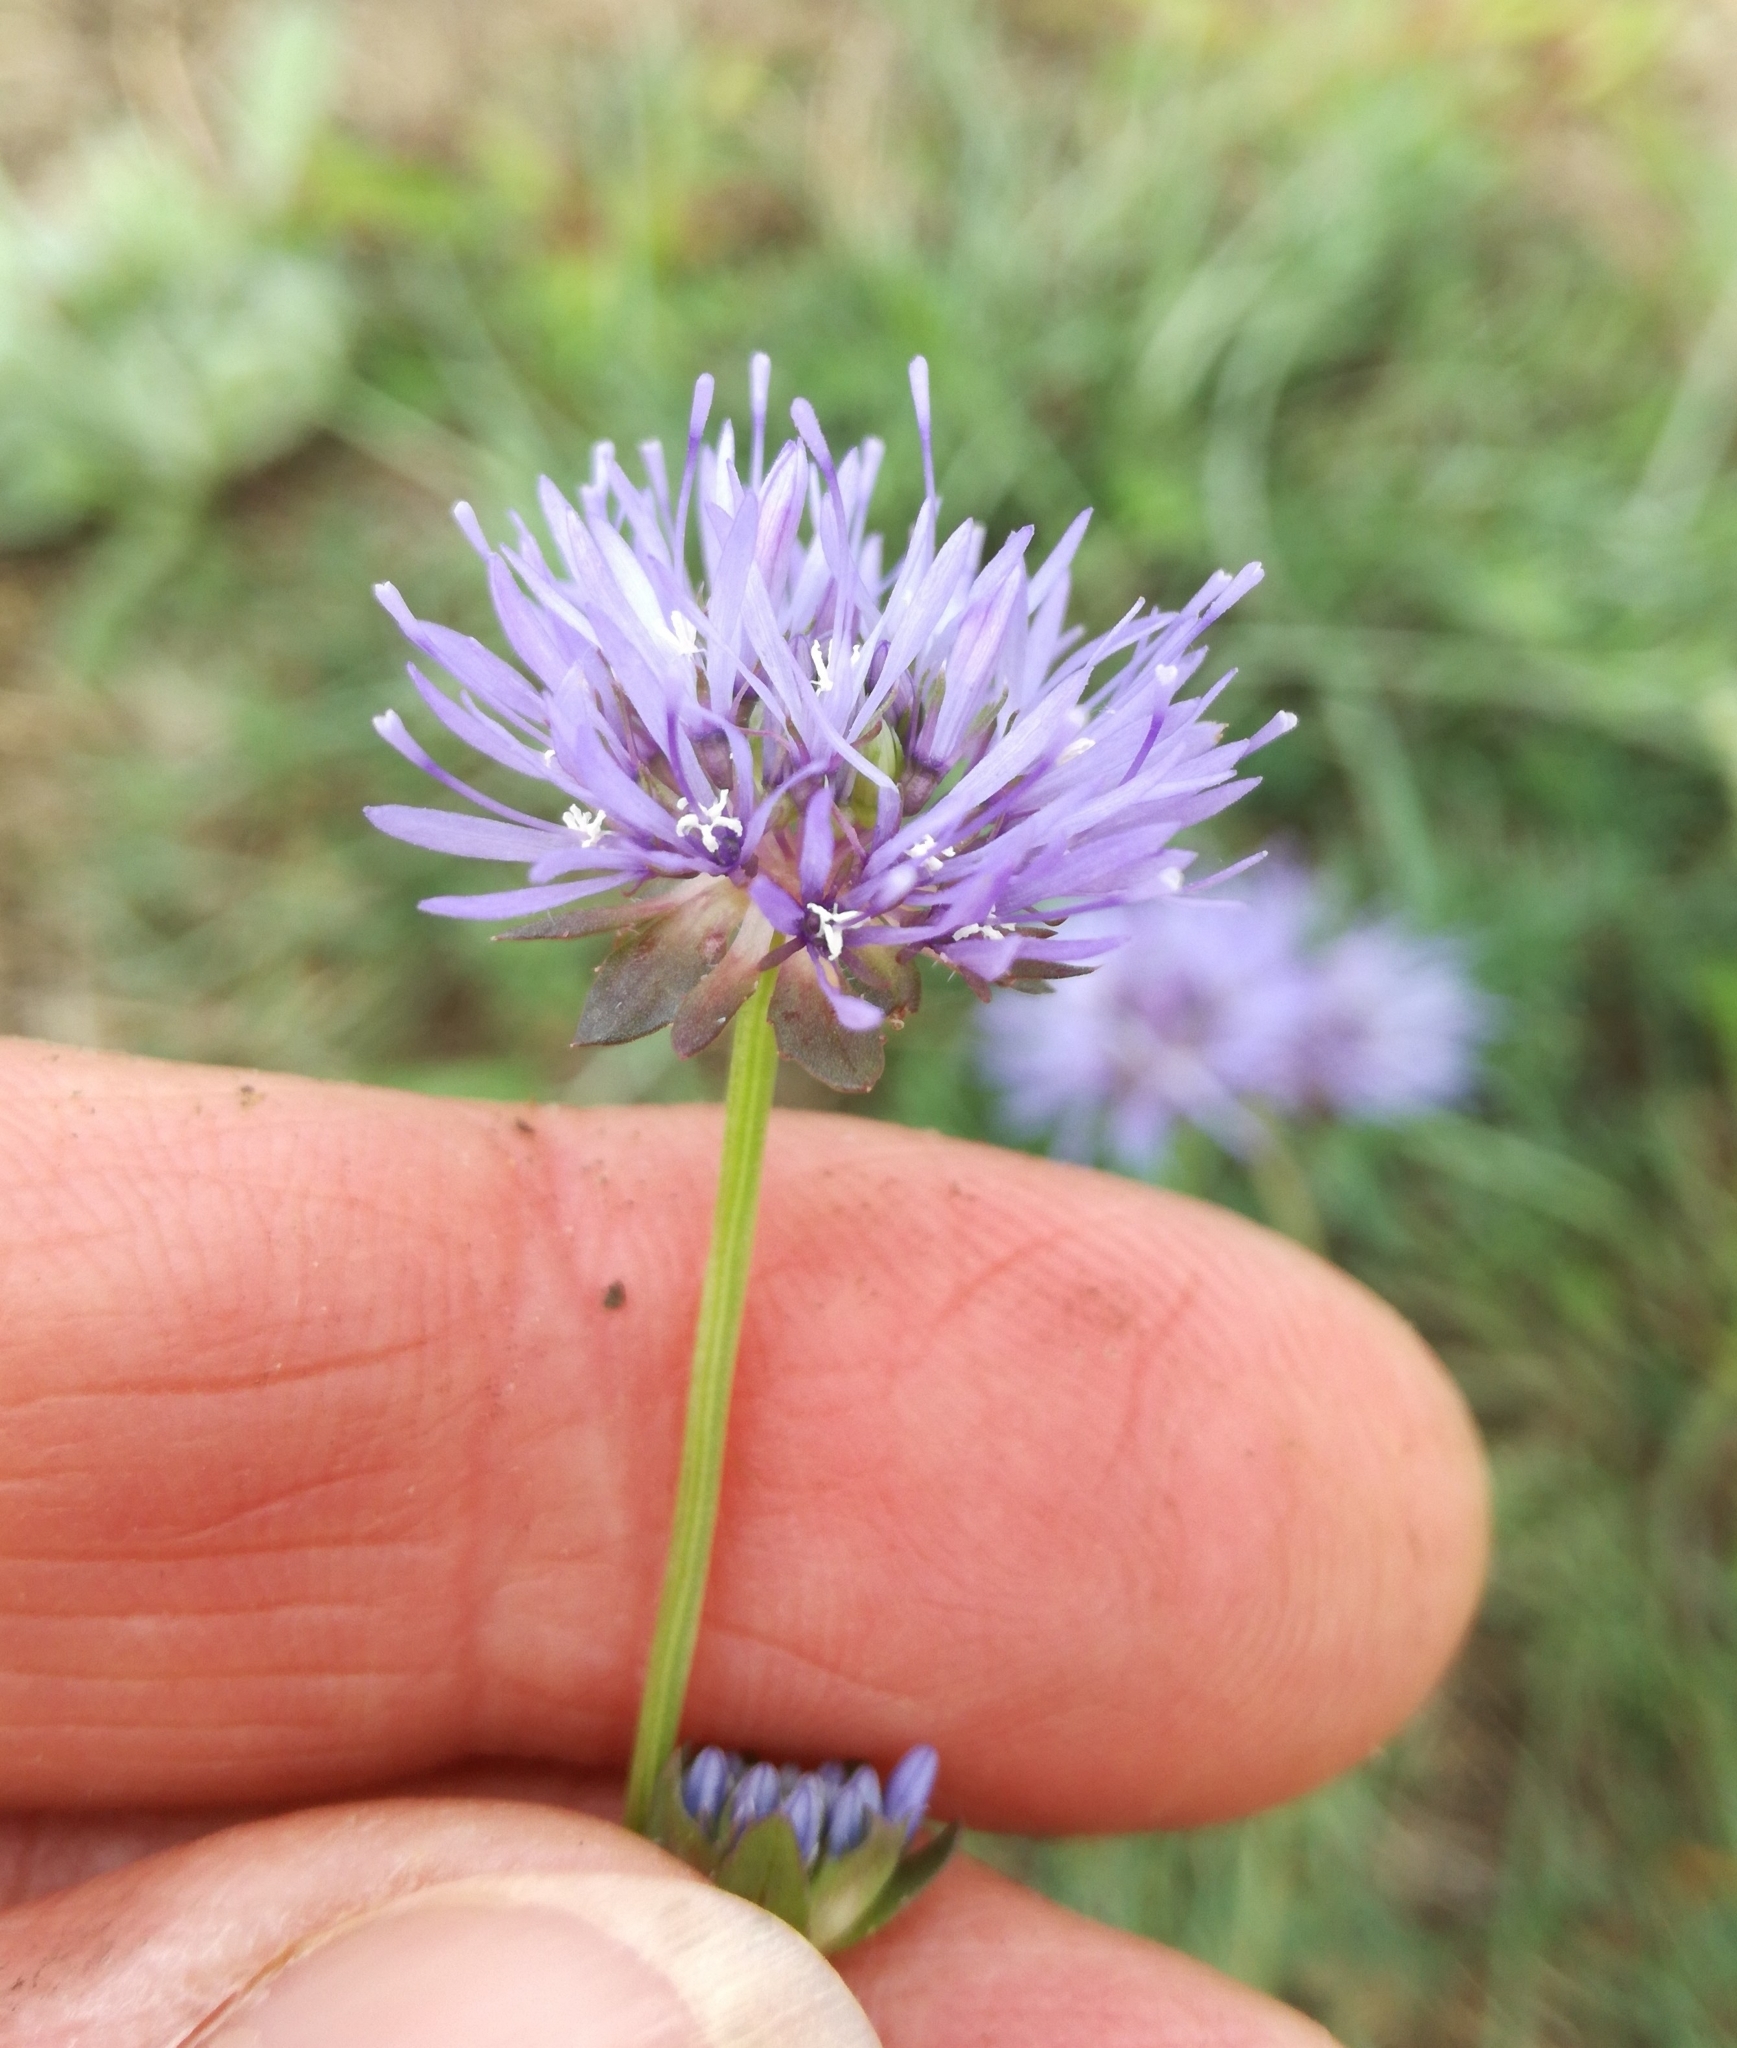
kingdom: Plantae
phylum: Tracheophyta
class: Magnoliopsida
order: Asterales
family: Campanulaceae
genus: Jasione
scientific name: Jasione montana
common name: Sheep's-bit
